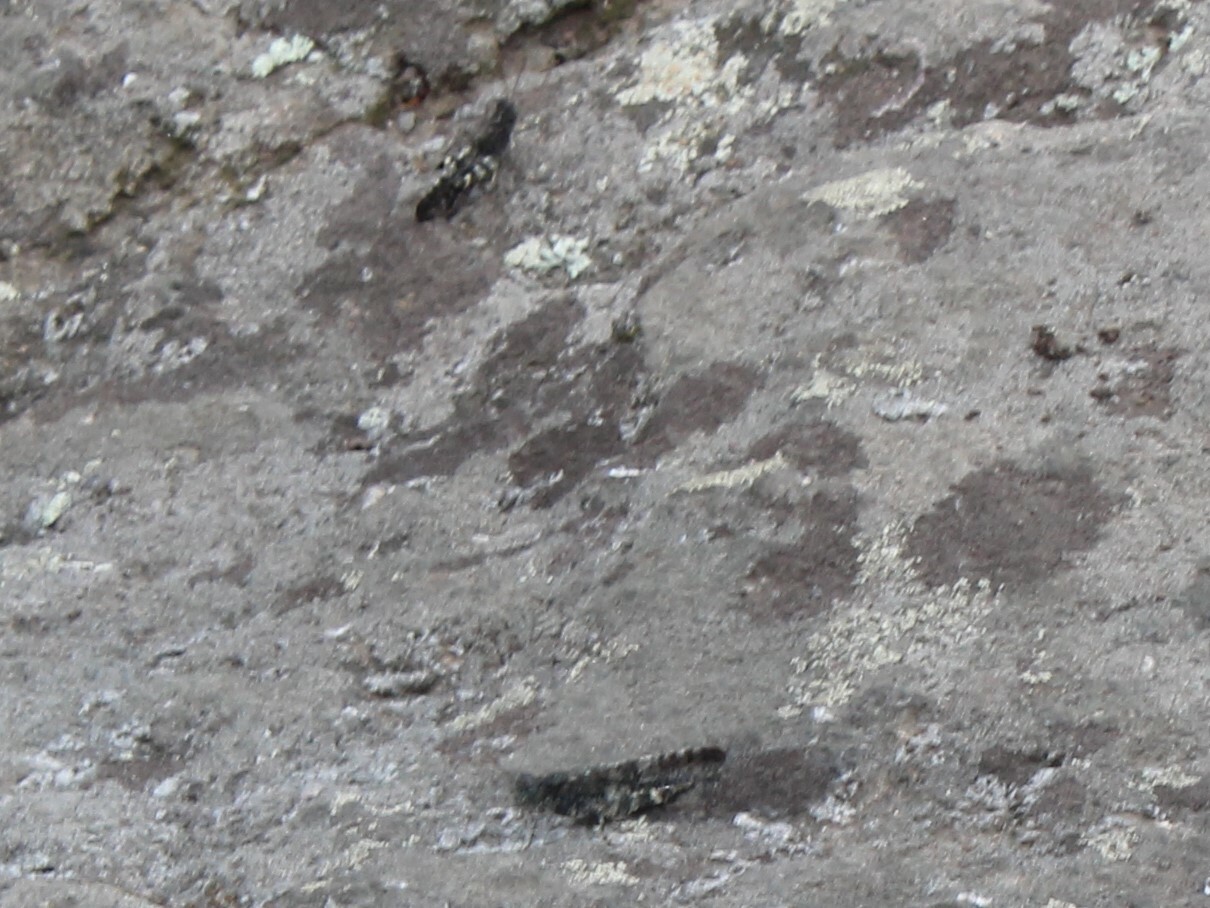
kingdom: Animalia
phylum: Arthropoda
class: Insecta
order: Orthoptera
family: Acrididae
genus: Trimerotropis
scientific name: Trimerotropis verruculata
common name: Crackling forest grasshopper
